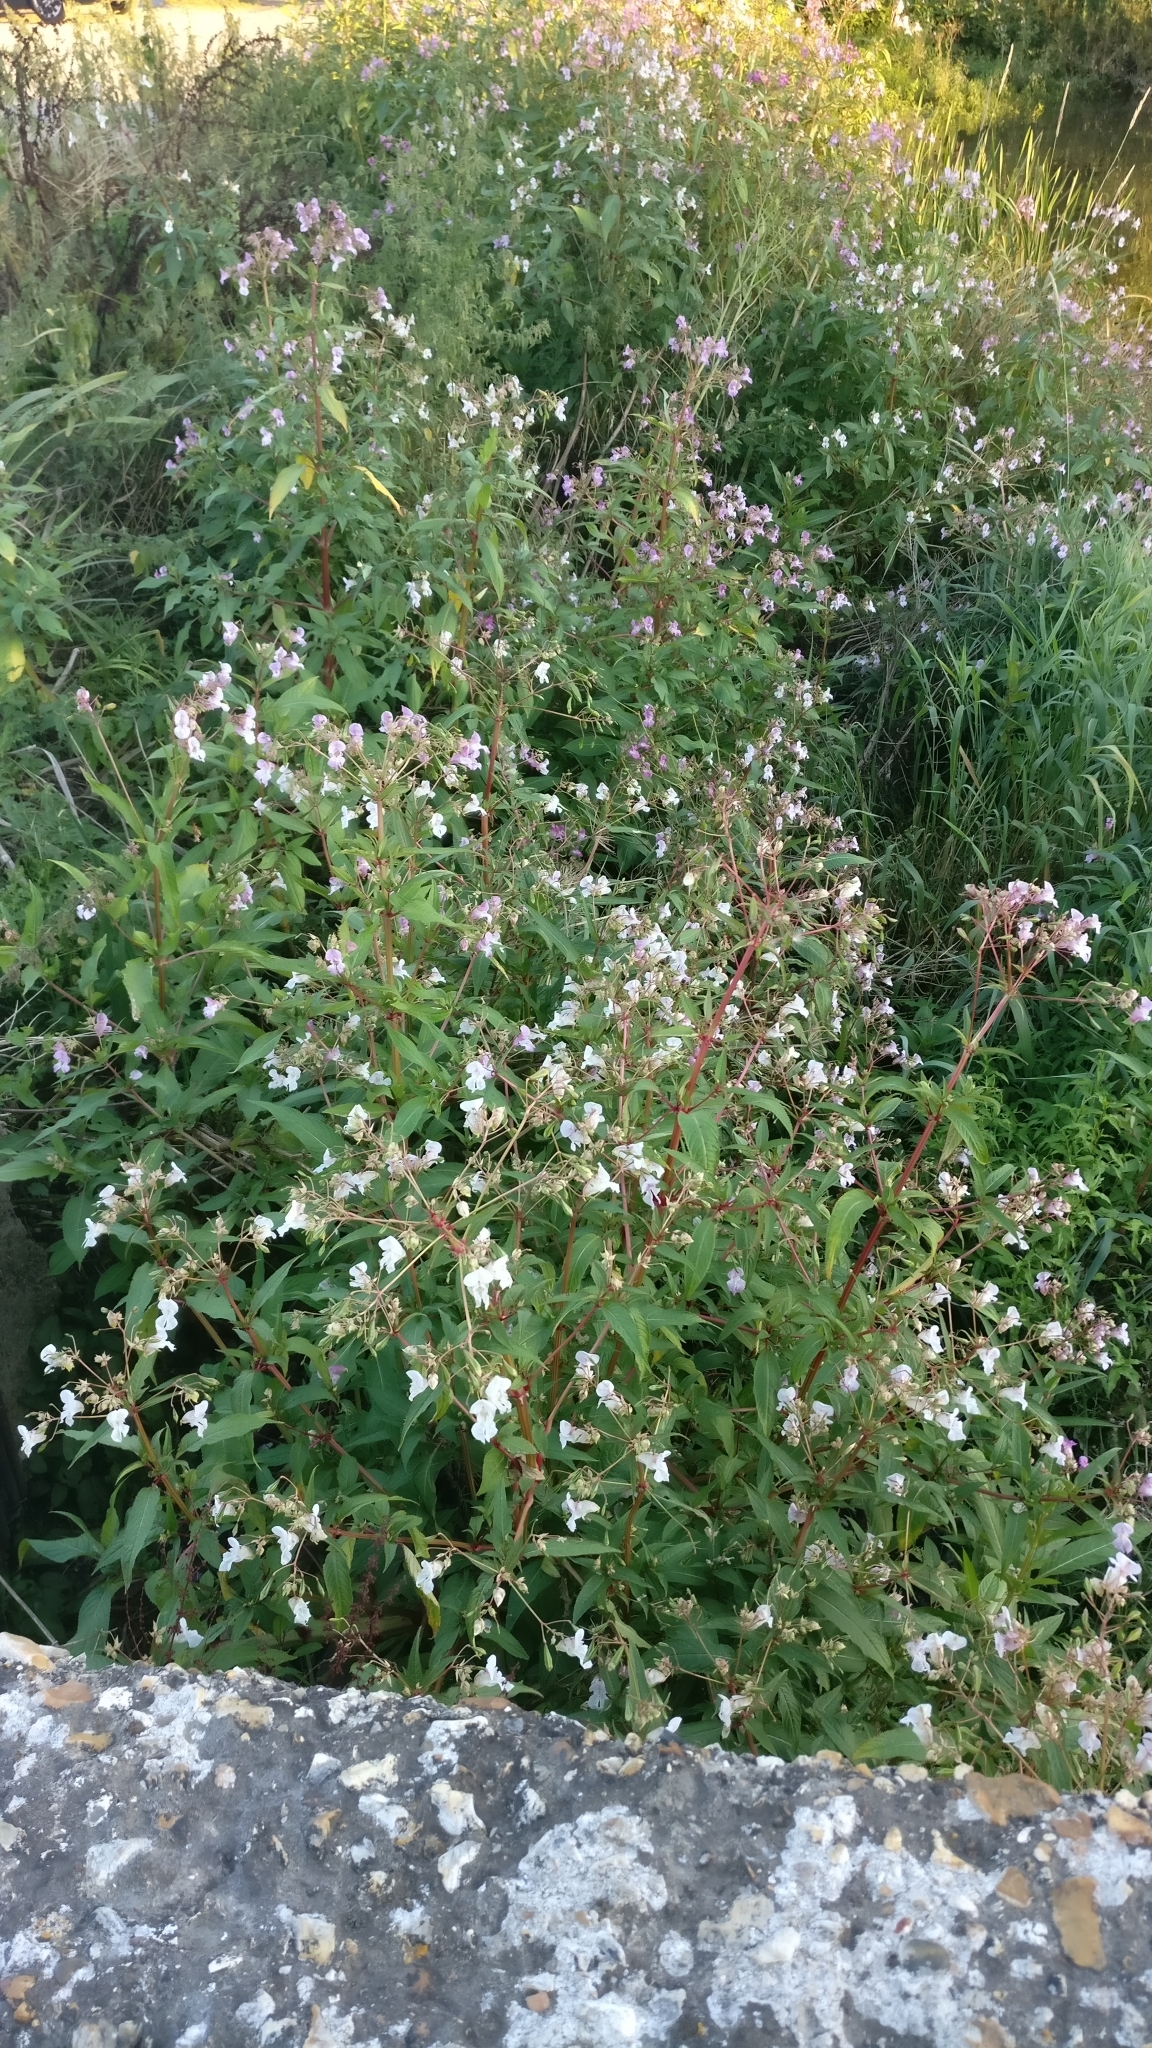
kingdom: Plantae
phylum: Tracheophyta
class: Magnoliopsida
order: Ericales
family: Balsaminaceae
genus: Impatiens
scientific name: Impatiens glandulifera
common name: Himalayan balsam
